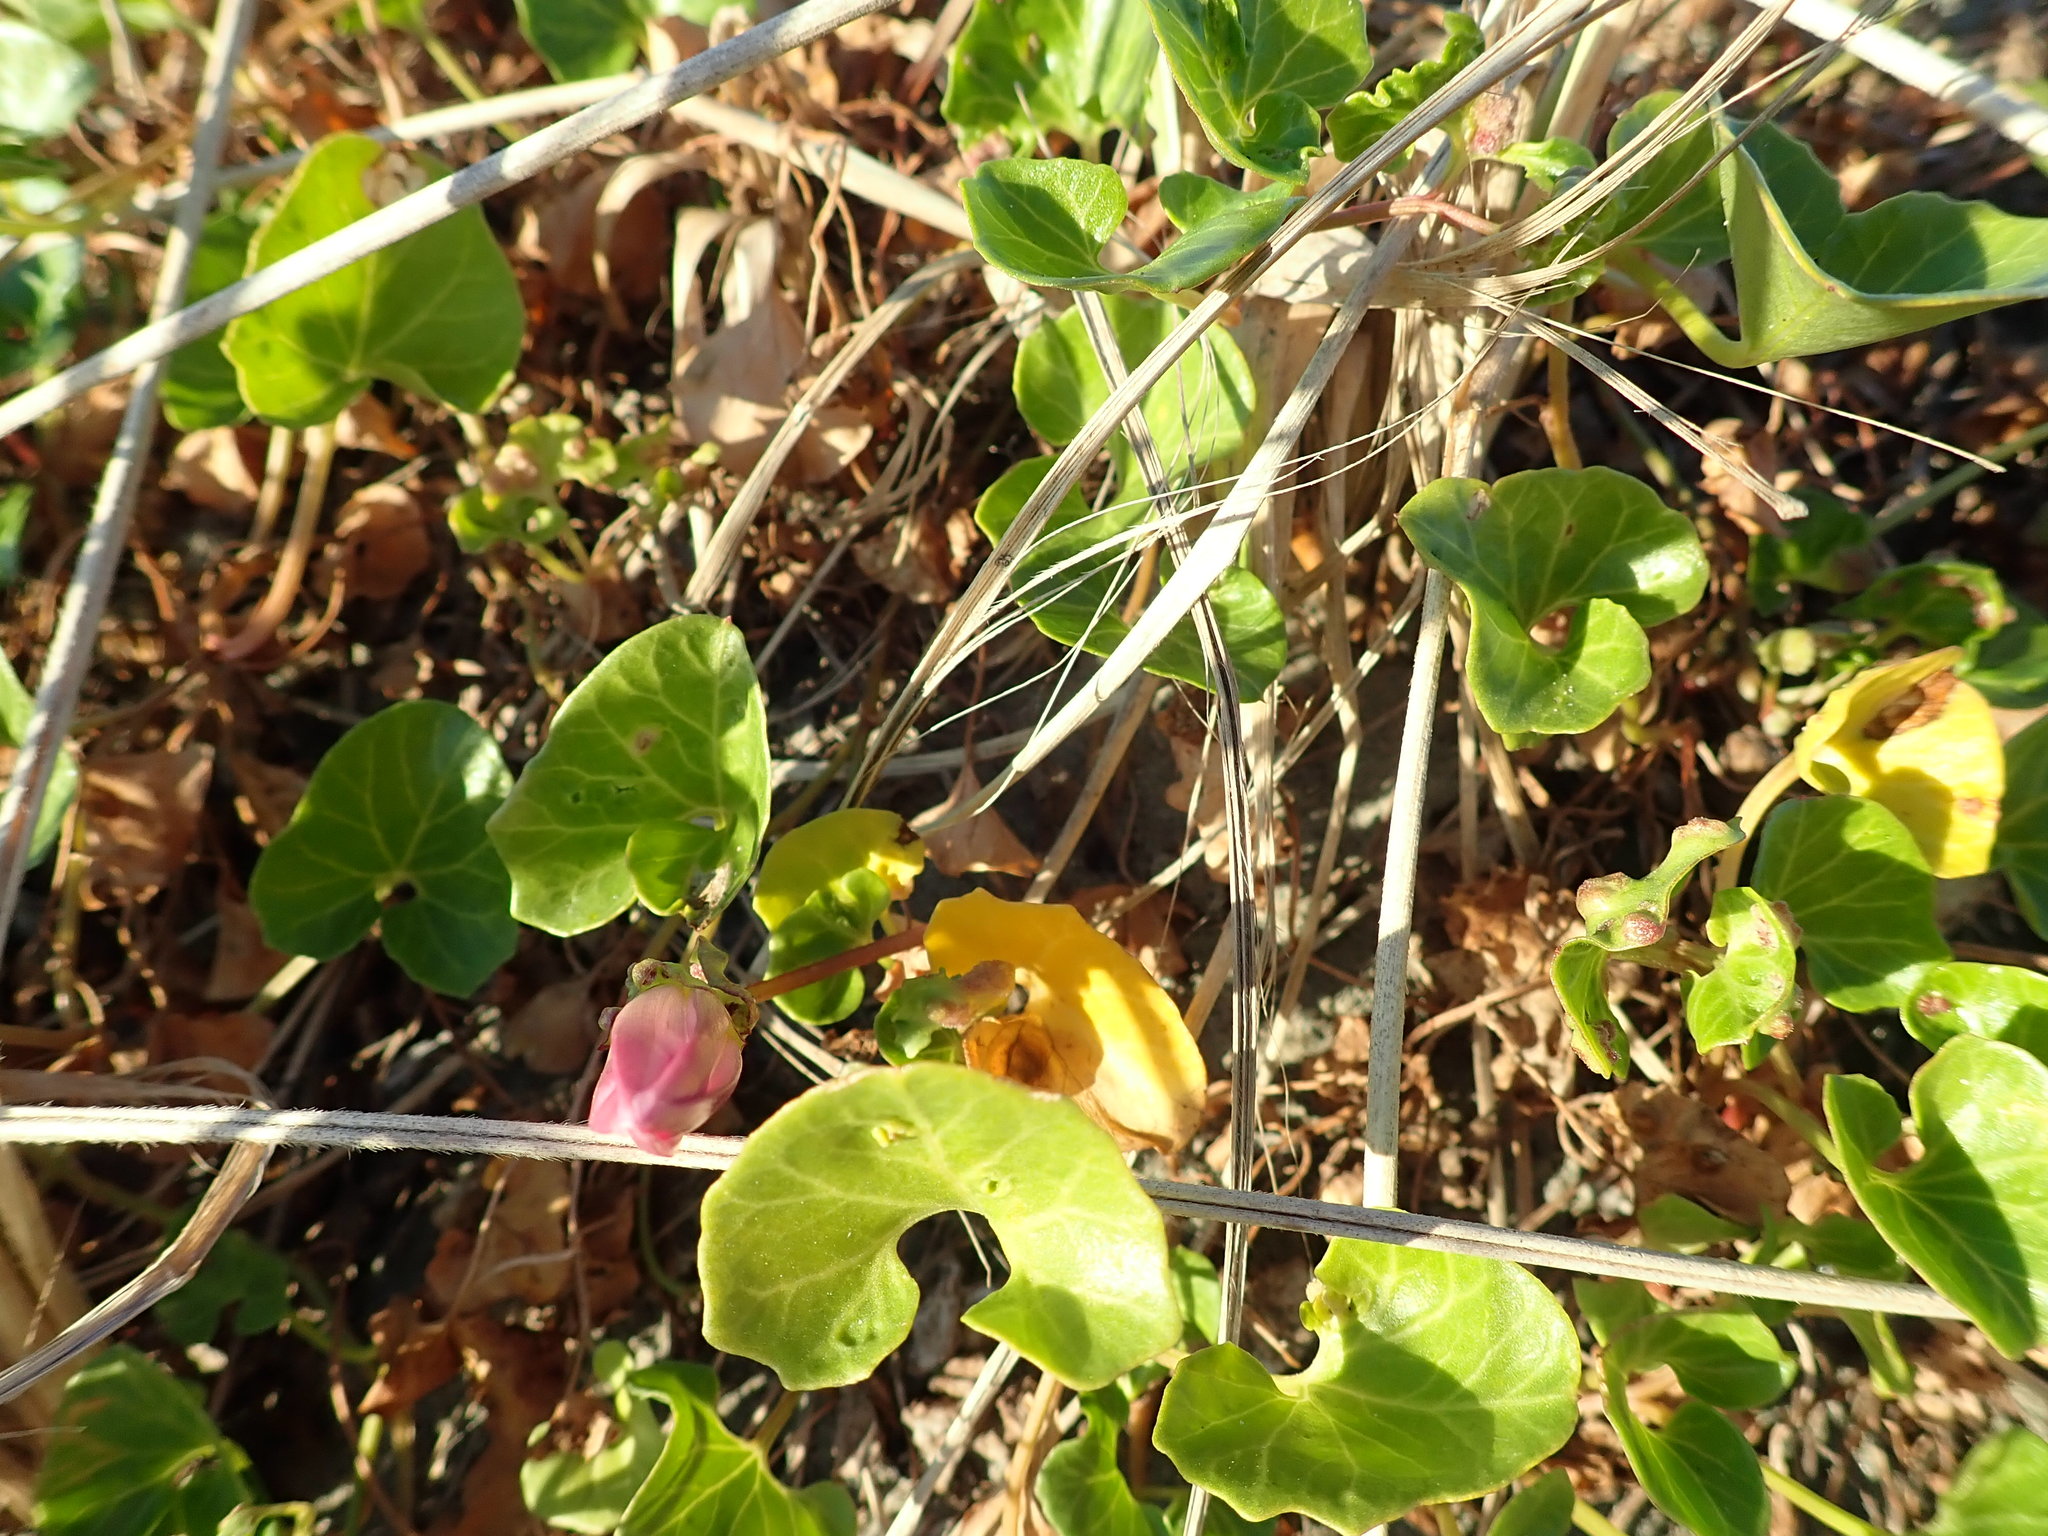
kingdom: Plantae
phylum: Tracheophyta
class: Magnoliopsida
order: Solanales
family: Convolvulaceae
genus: Calystegia
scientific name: Calystegia soldanella
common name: Sea bindweed
